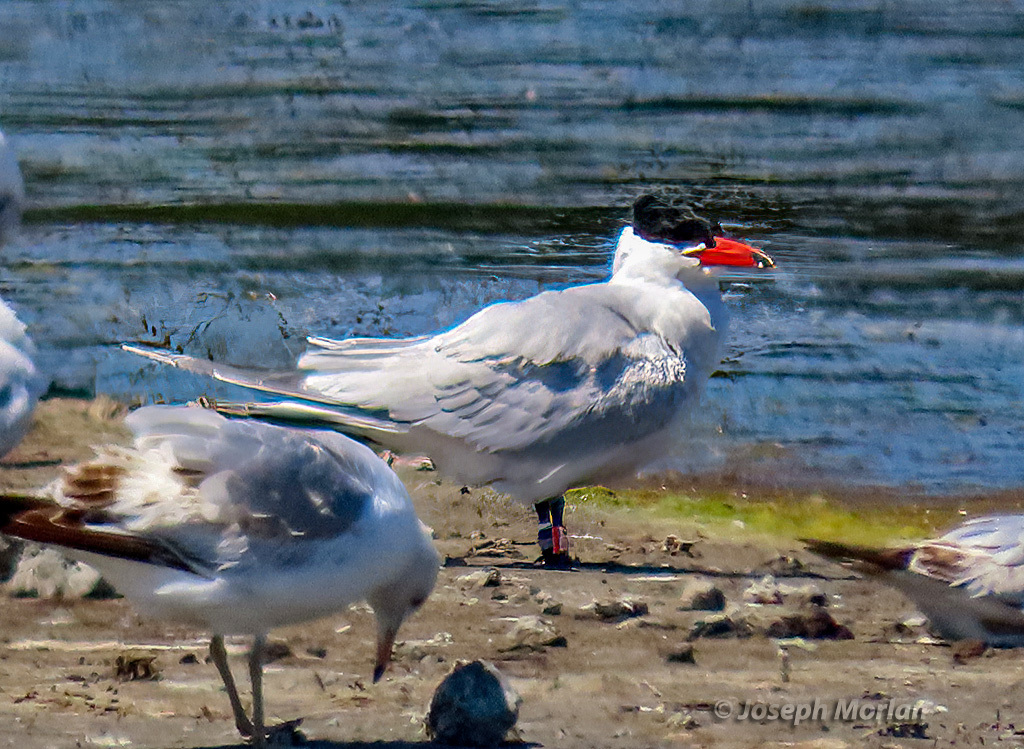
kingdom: Animalia
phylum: Chordata
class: Aves
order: Charadriiformes
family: Laridae
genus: Hydroprogne
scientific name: Hydroprogne caspia
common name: Caspian tern
